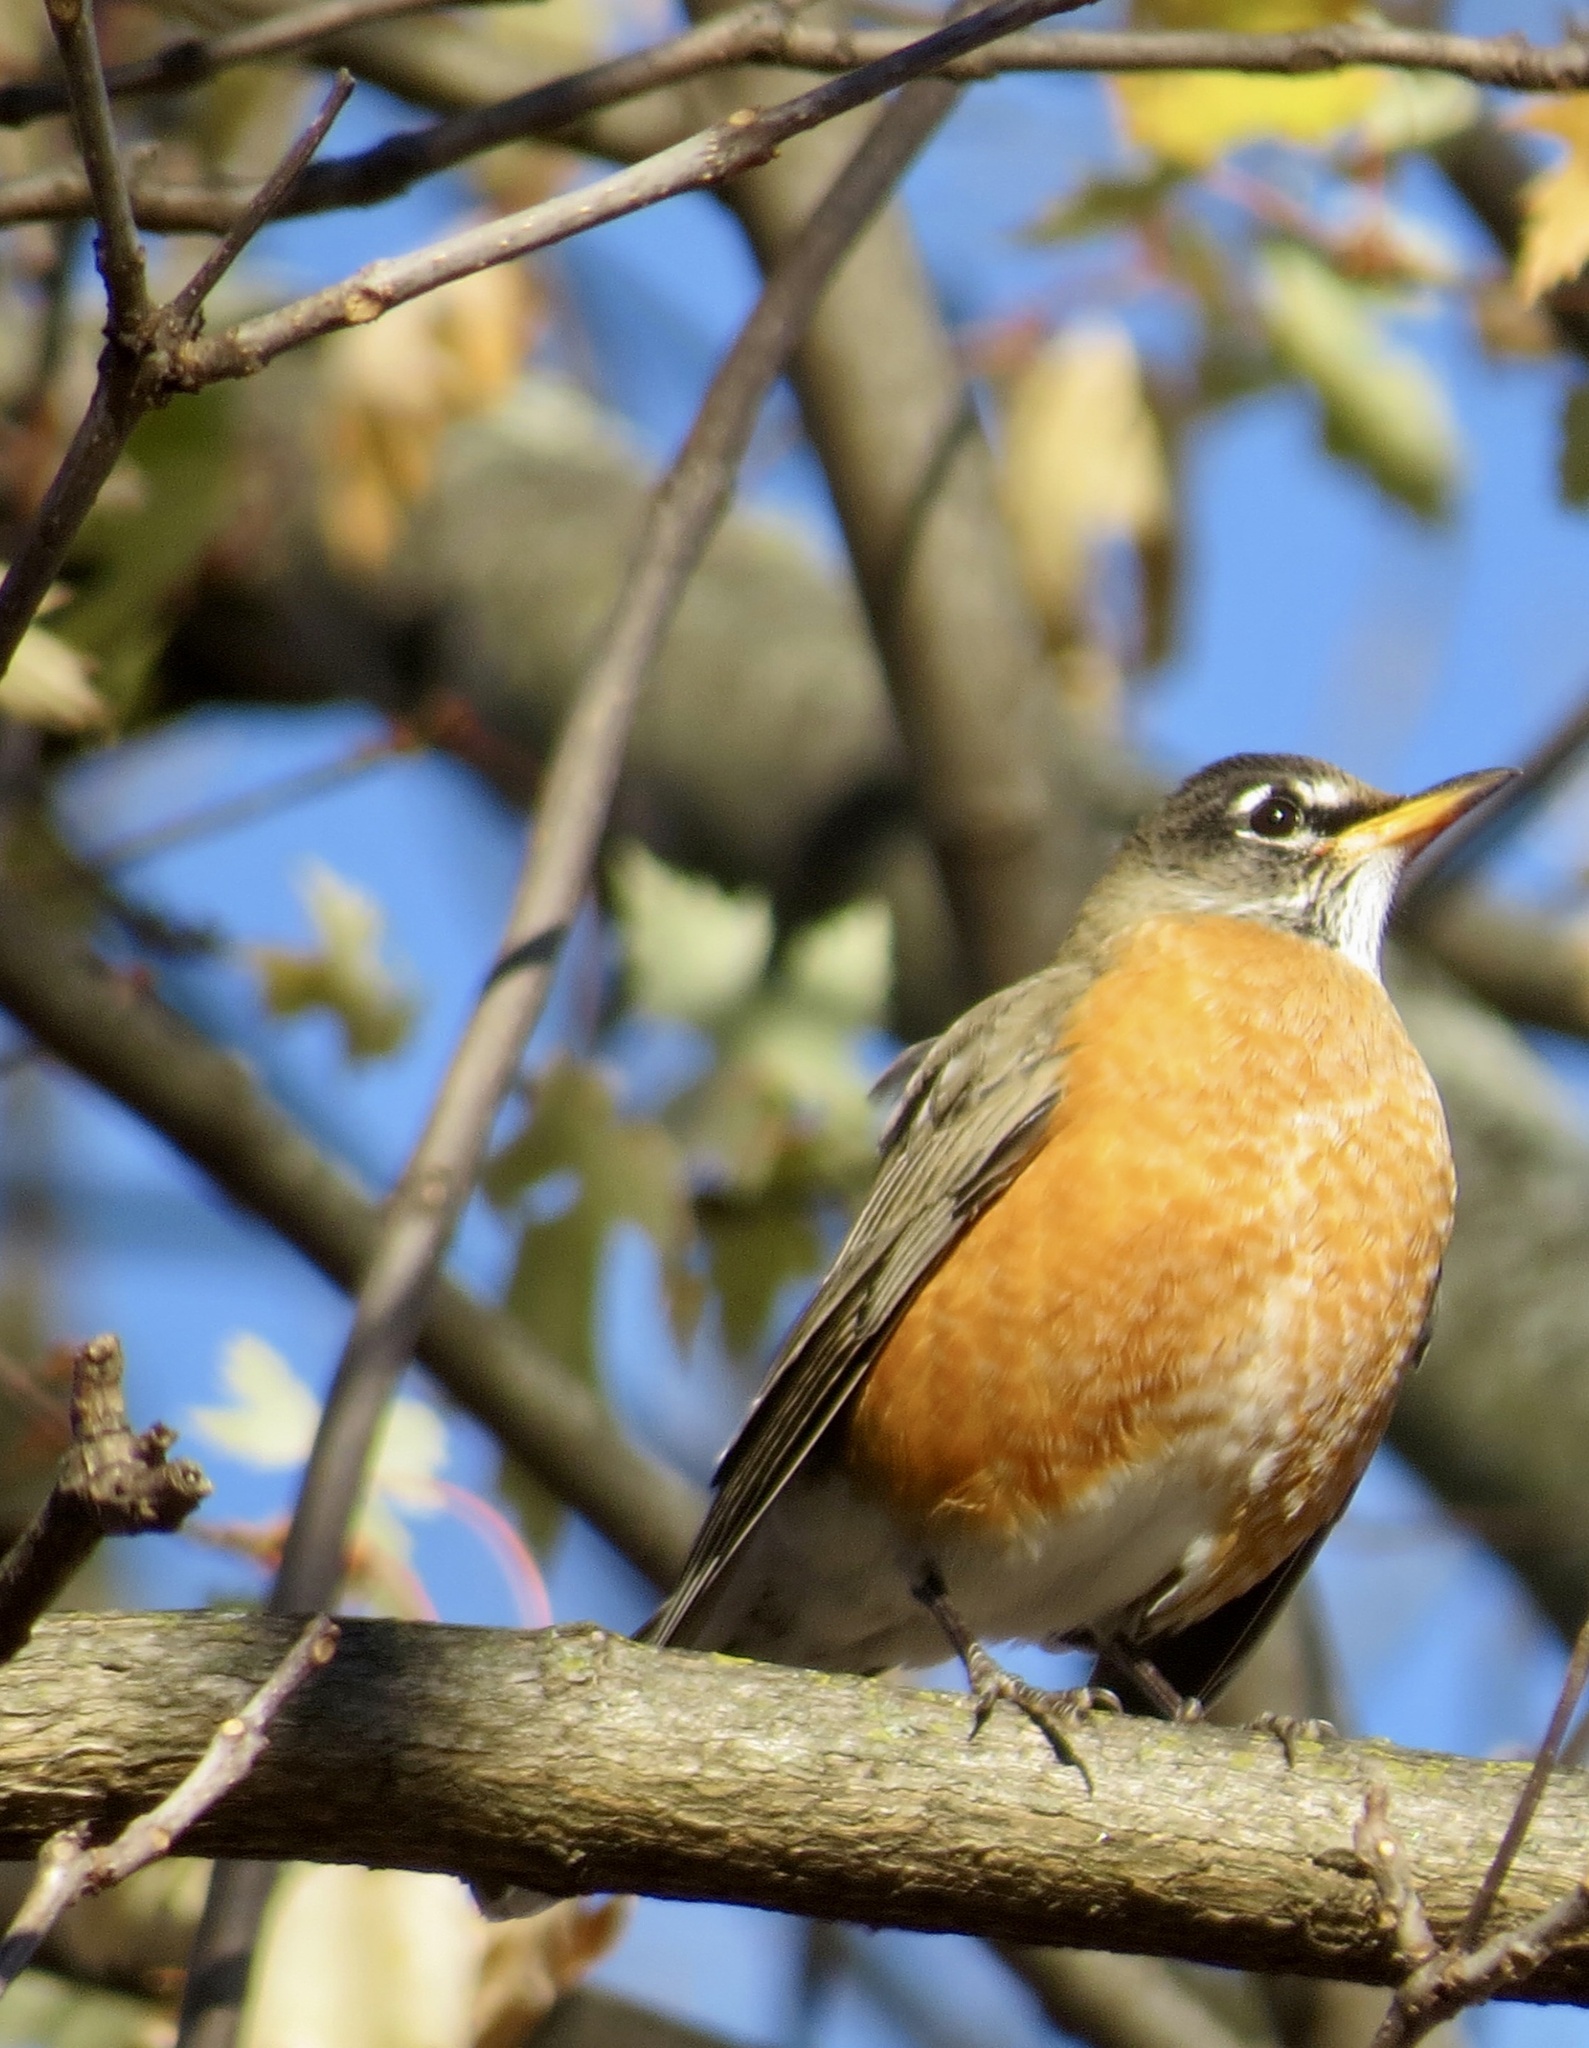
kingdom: Animalia
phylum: Chordata
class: Aves
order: Passeriformes
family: Turdidae
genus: Turdus
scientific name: Turdus migratorius
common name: American robin
